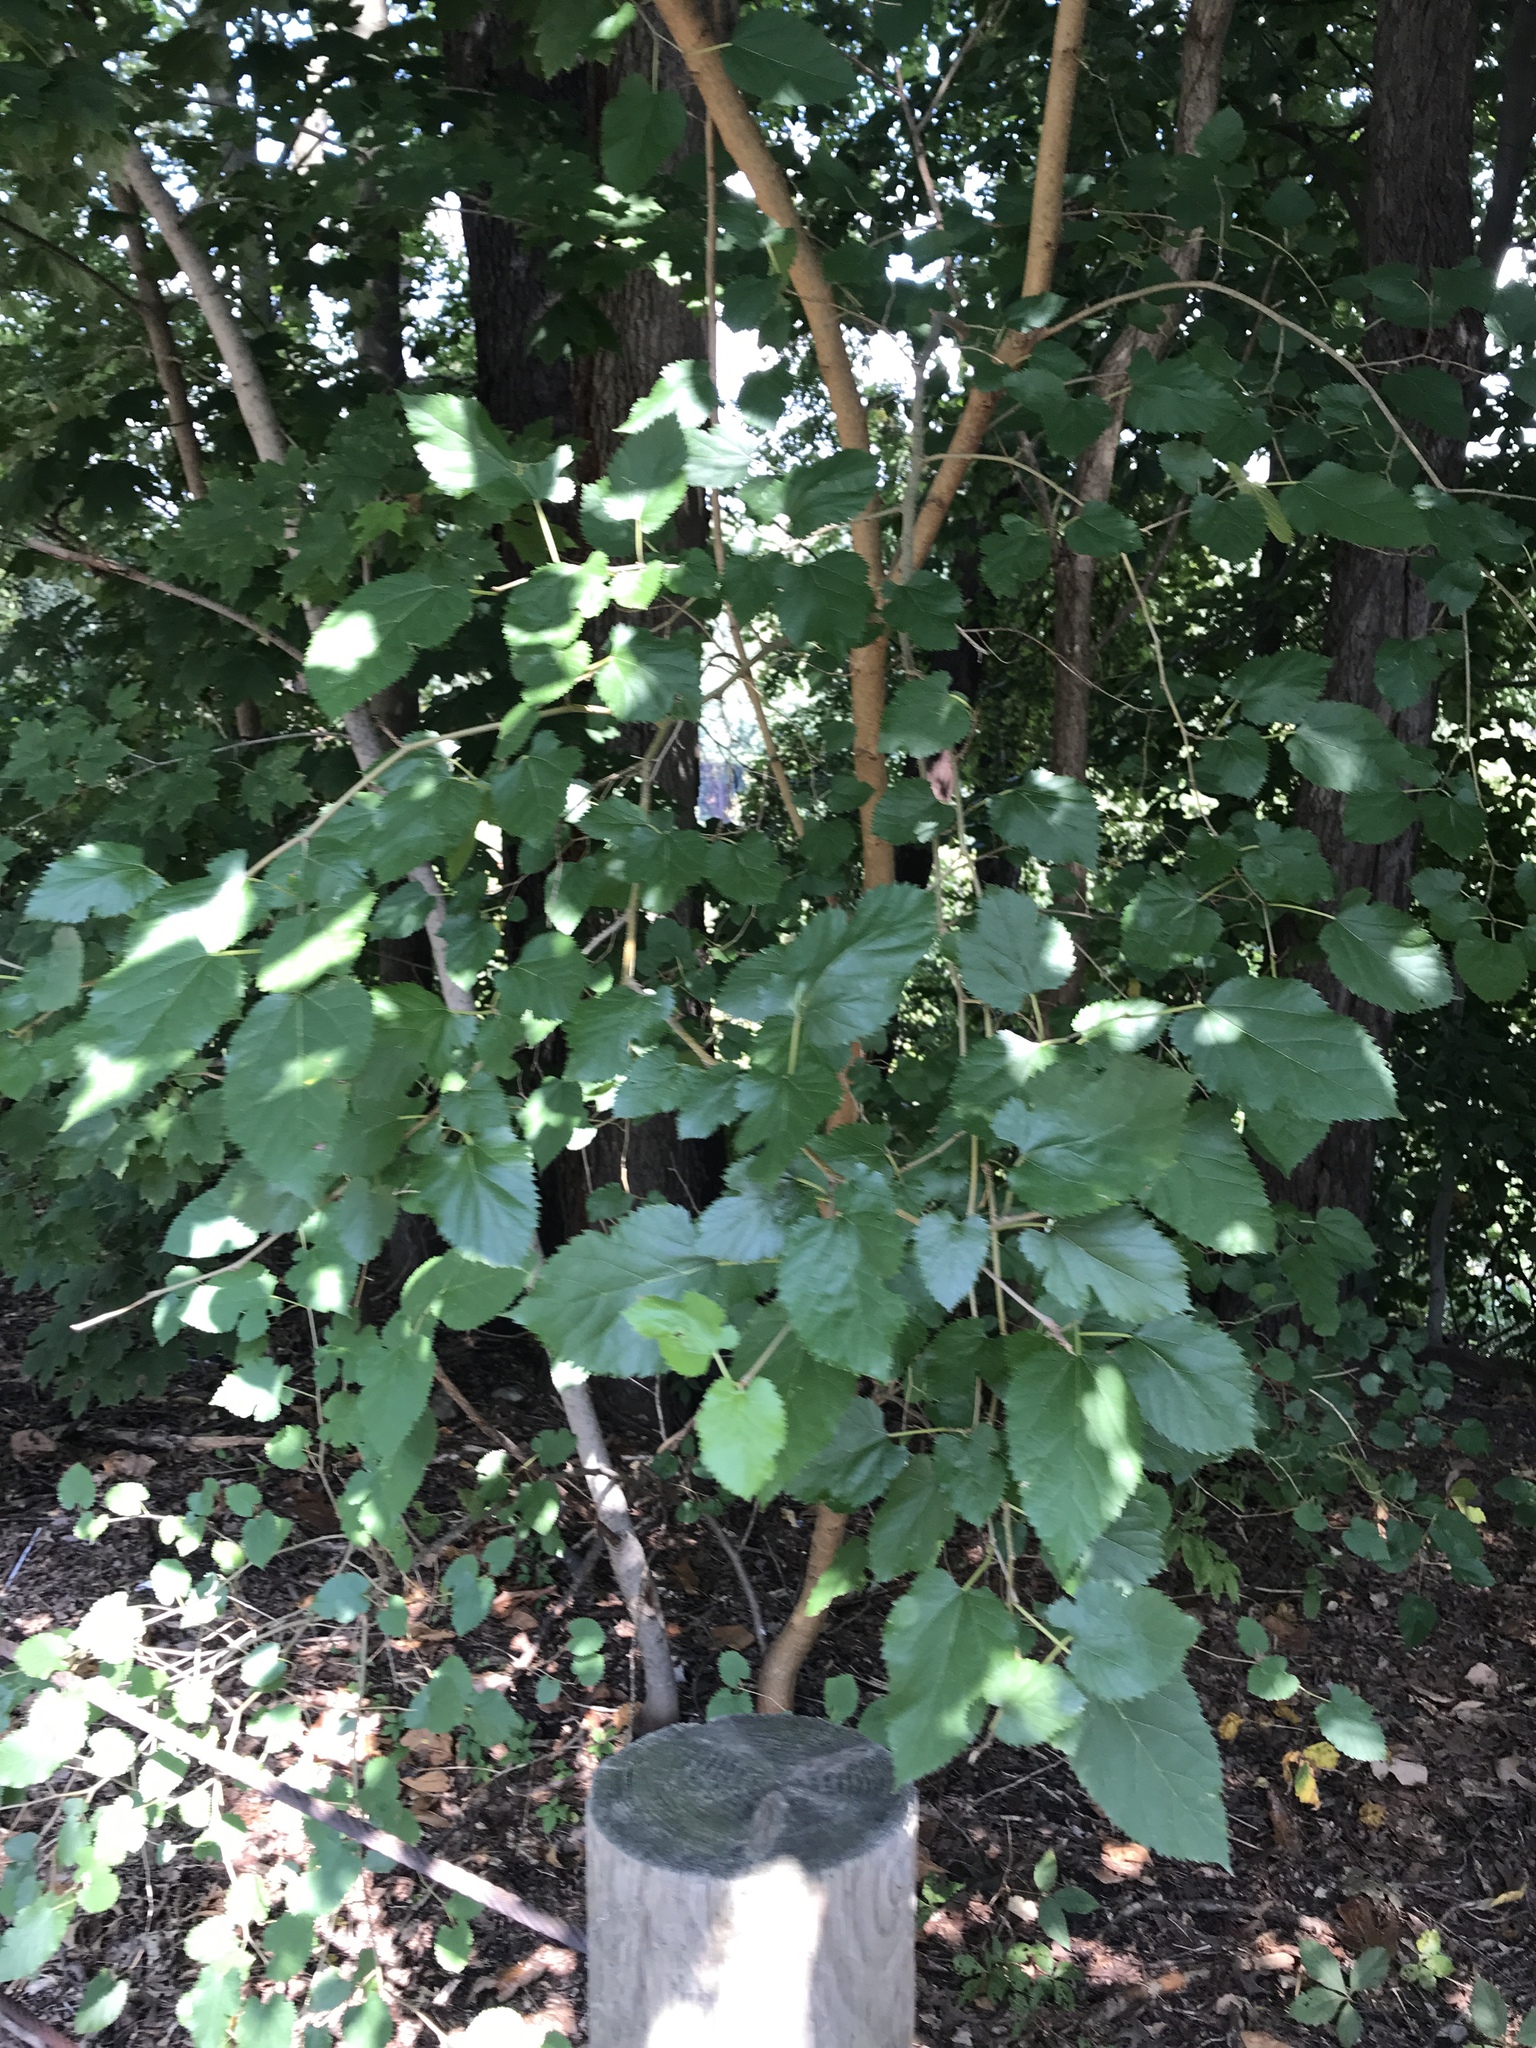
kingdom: Plantae
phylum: Tracheophyta
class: Magnoliopsida
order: Rosales
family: Moraceae
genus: Morus
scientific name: Morus alba
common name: White mulberry
